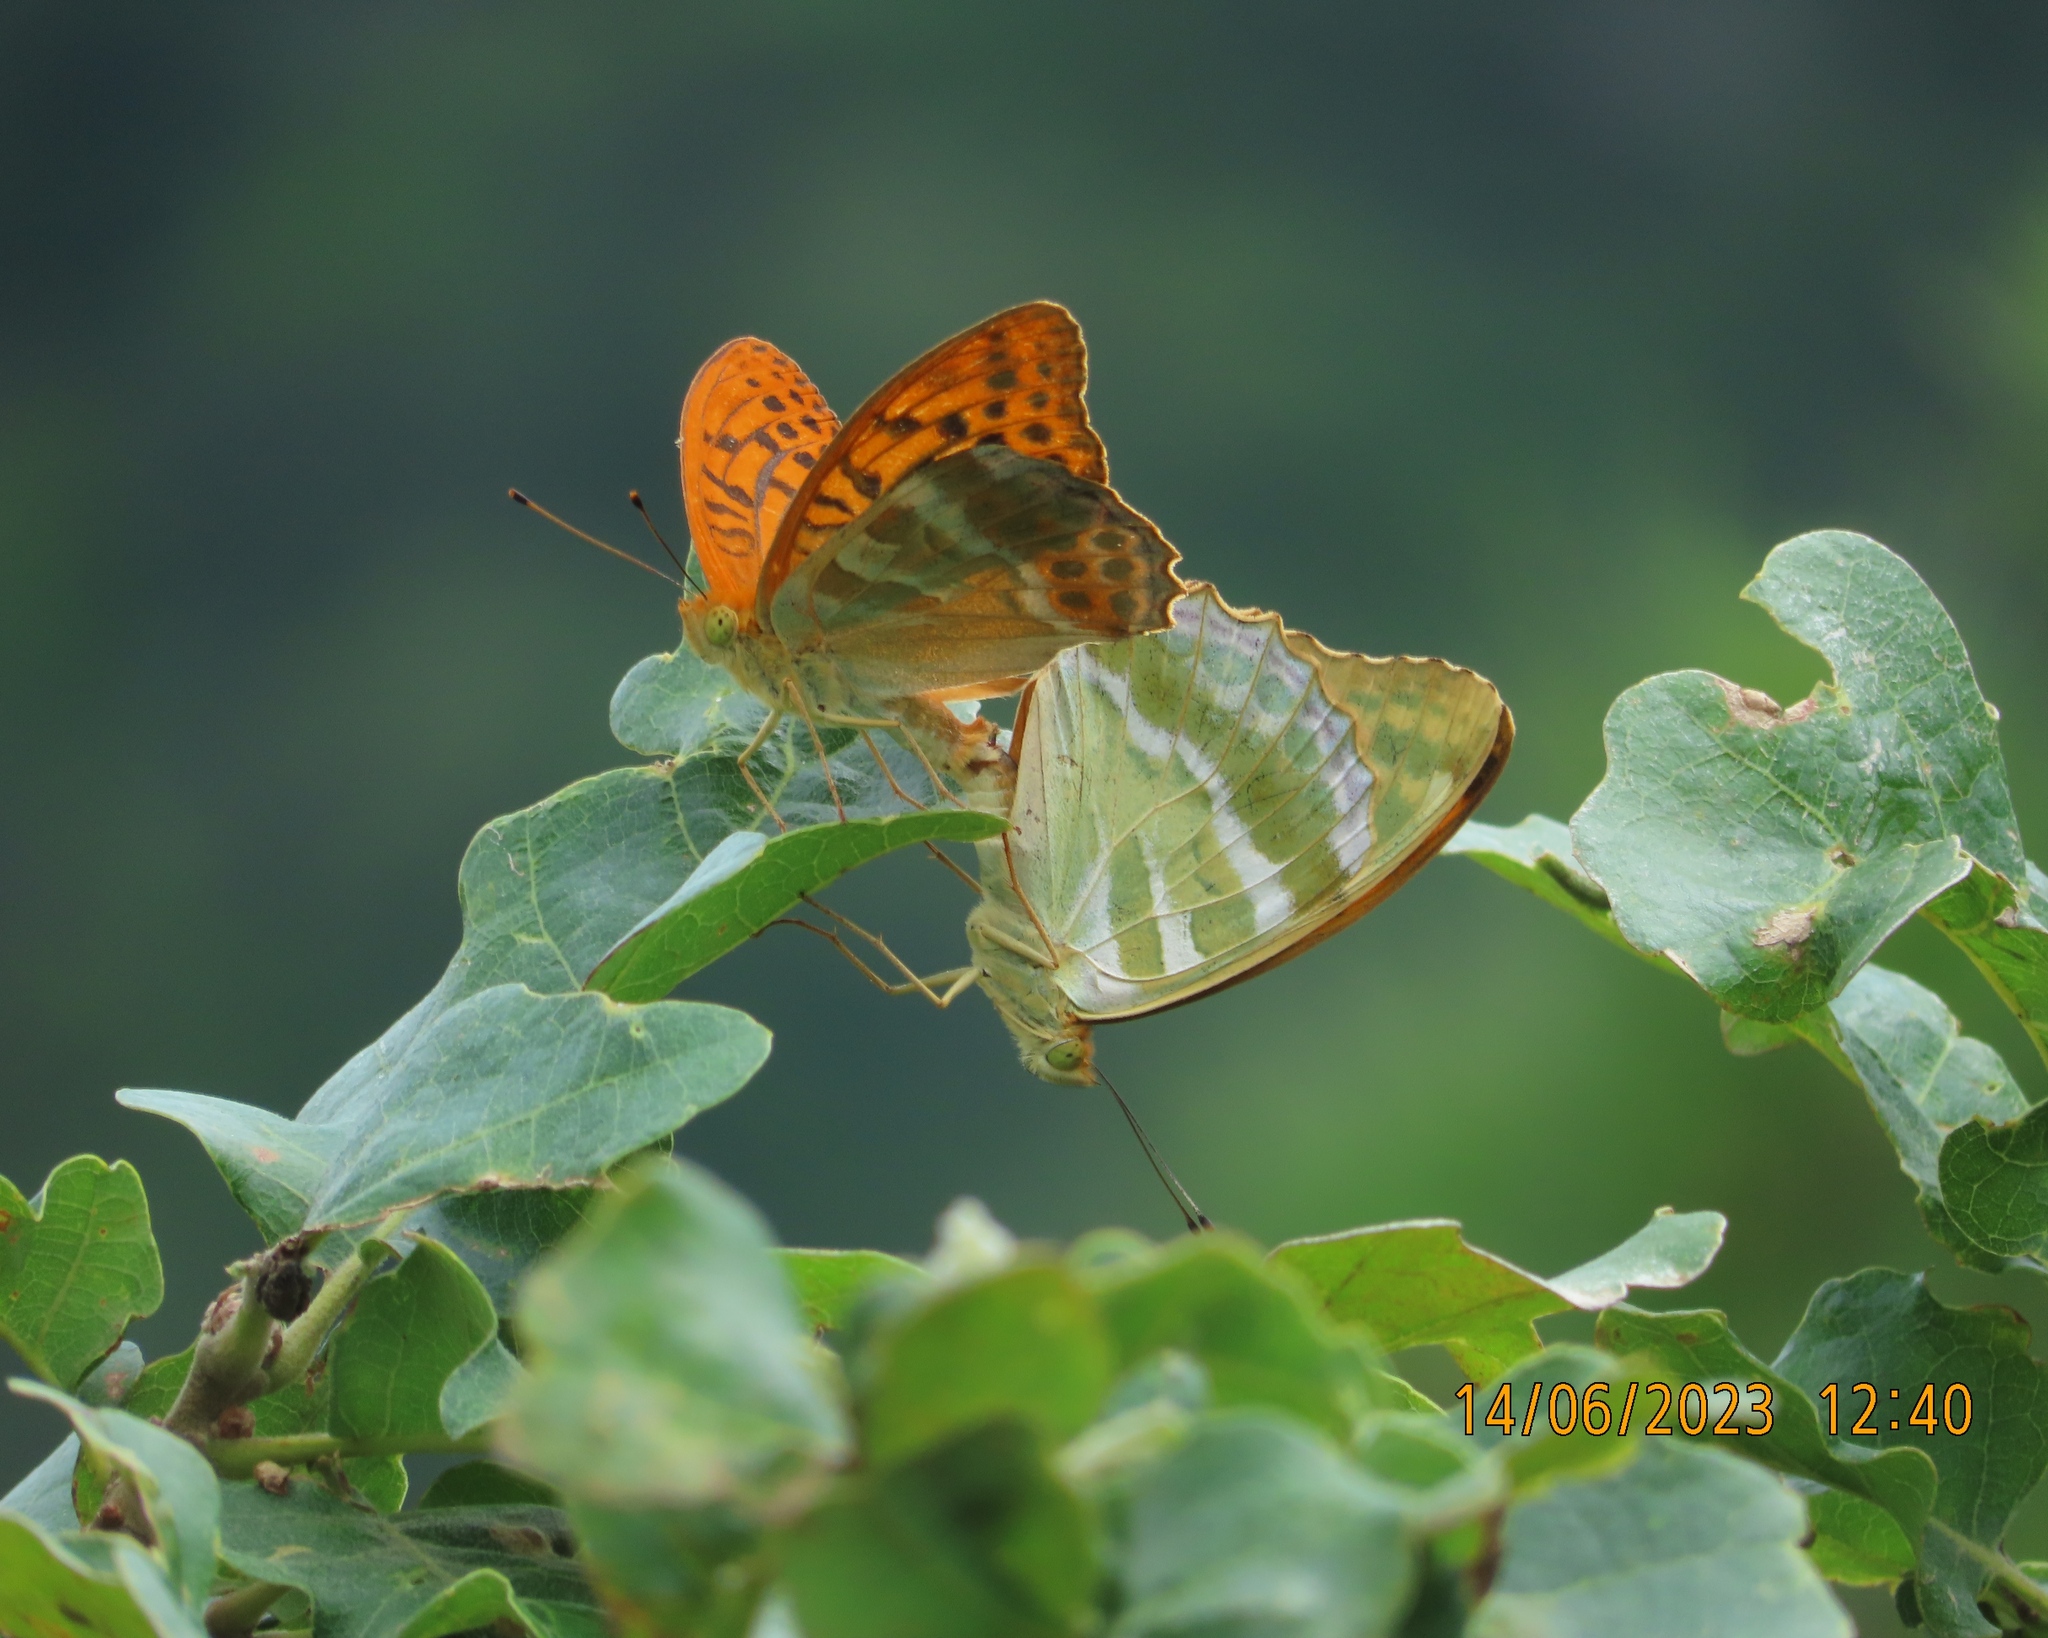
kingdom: Animalia
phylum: Arthropoda
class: Insecta
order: Lepidoptera
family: Nymphalidae
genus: Argynnis
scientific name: Argynnis paphia
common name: Silver-washed fritillary
